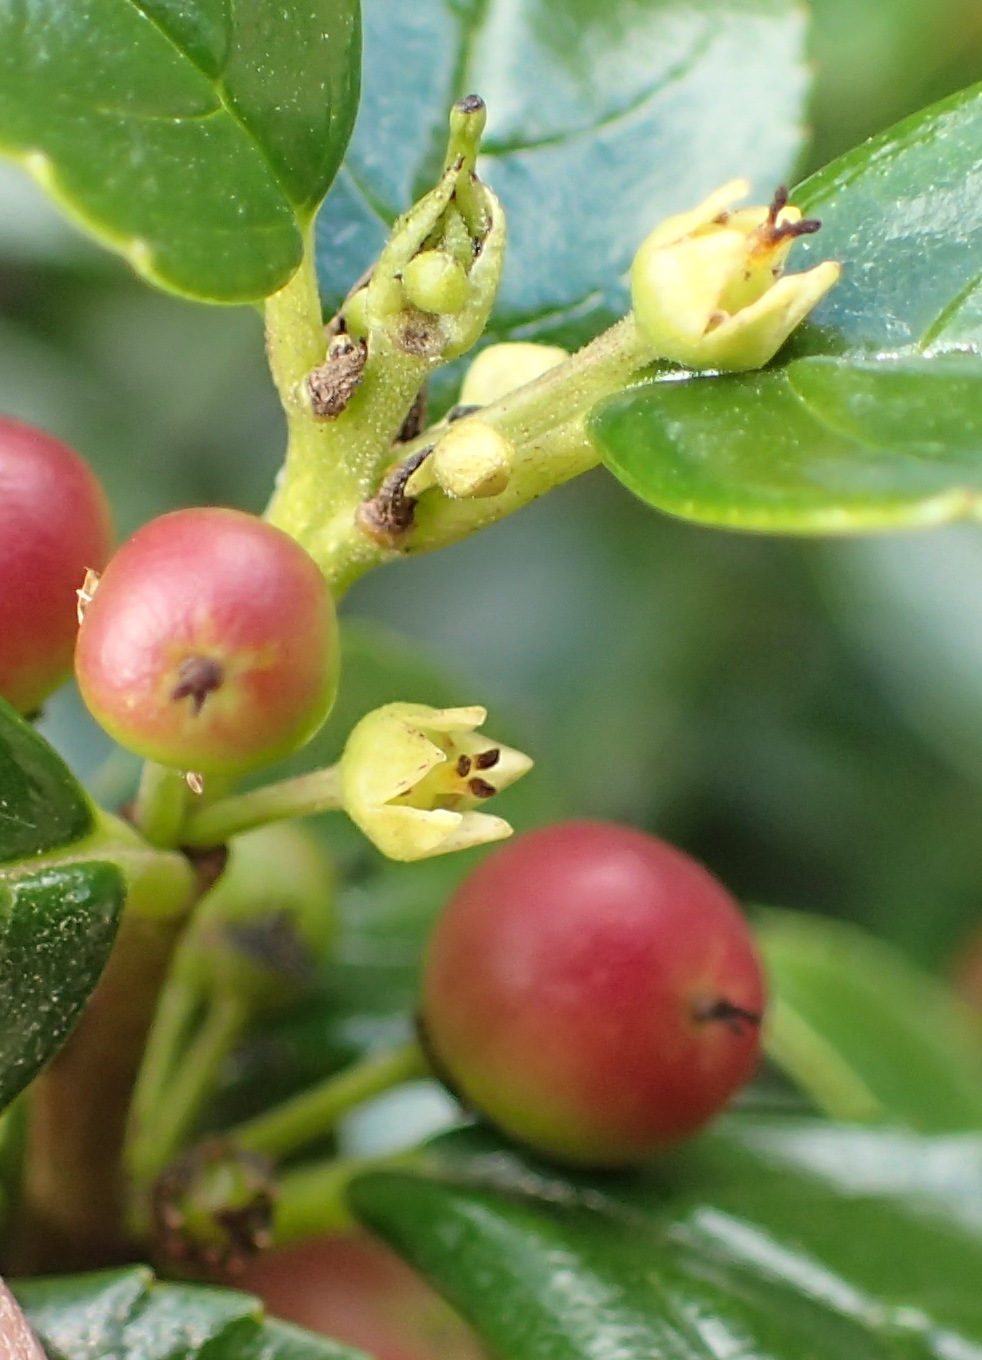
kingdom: Plantae
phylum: Tracheophyta
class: Magnoliopsida
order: Rosales
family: Rhamnaceae
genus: Rhamnus
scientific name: Rhamnus prinoides
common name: Dogwood
